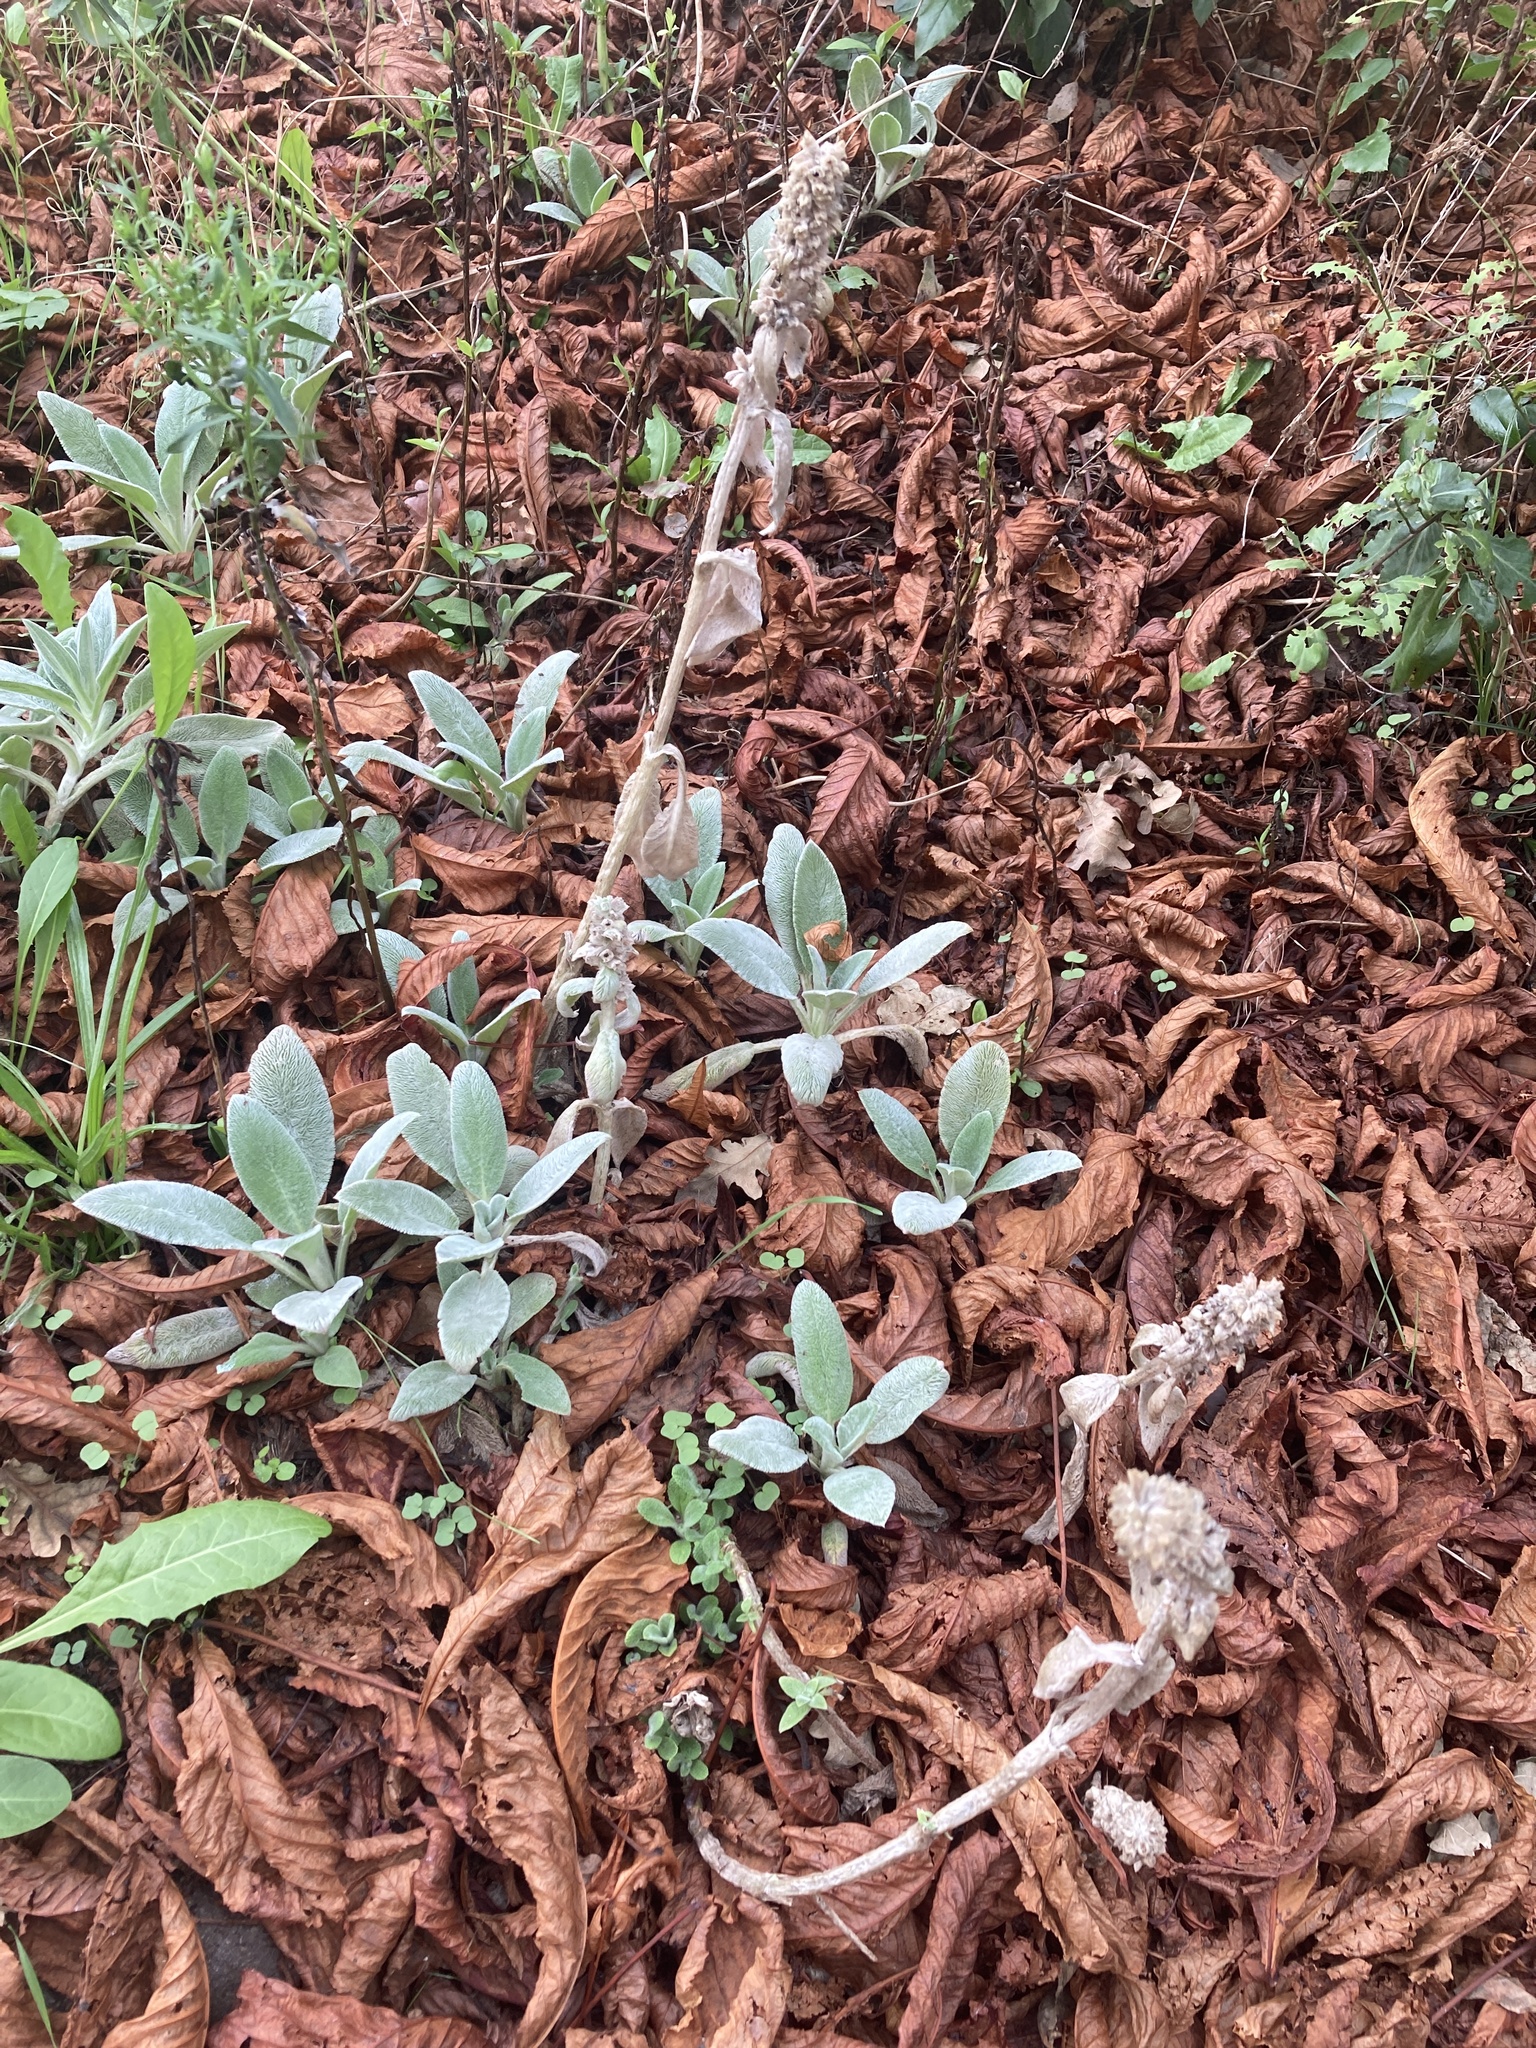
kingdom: Plantae
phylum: Tracheophyta
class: Magnoliopsida
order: Lamiales
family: Lamiaceae
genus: Stachys
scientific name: Stachys byzantina
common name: Lamb's-ear
